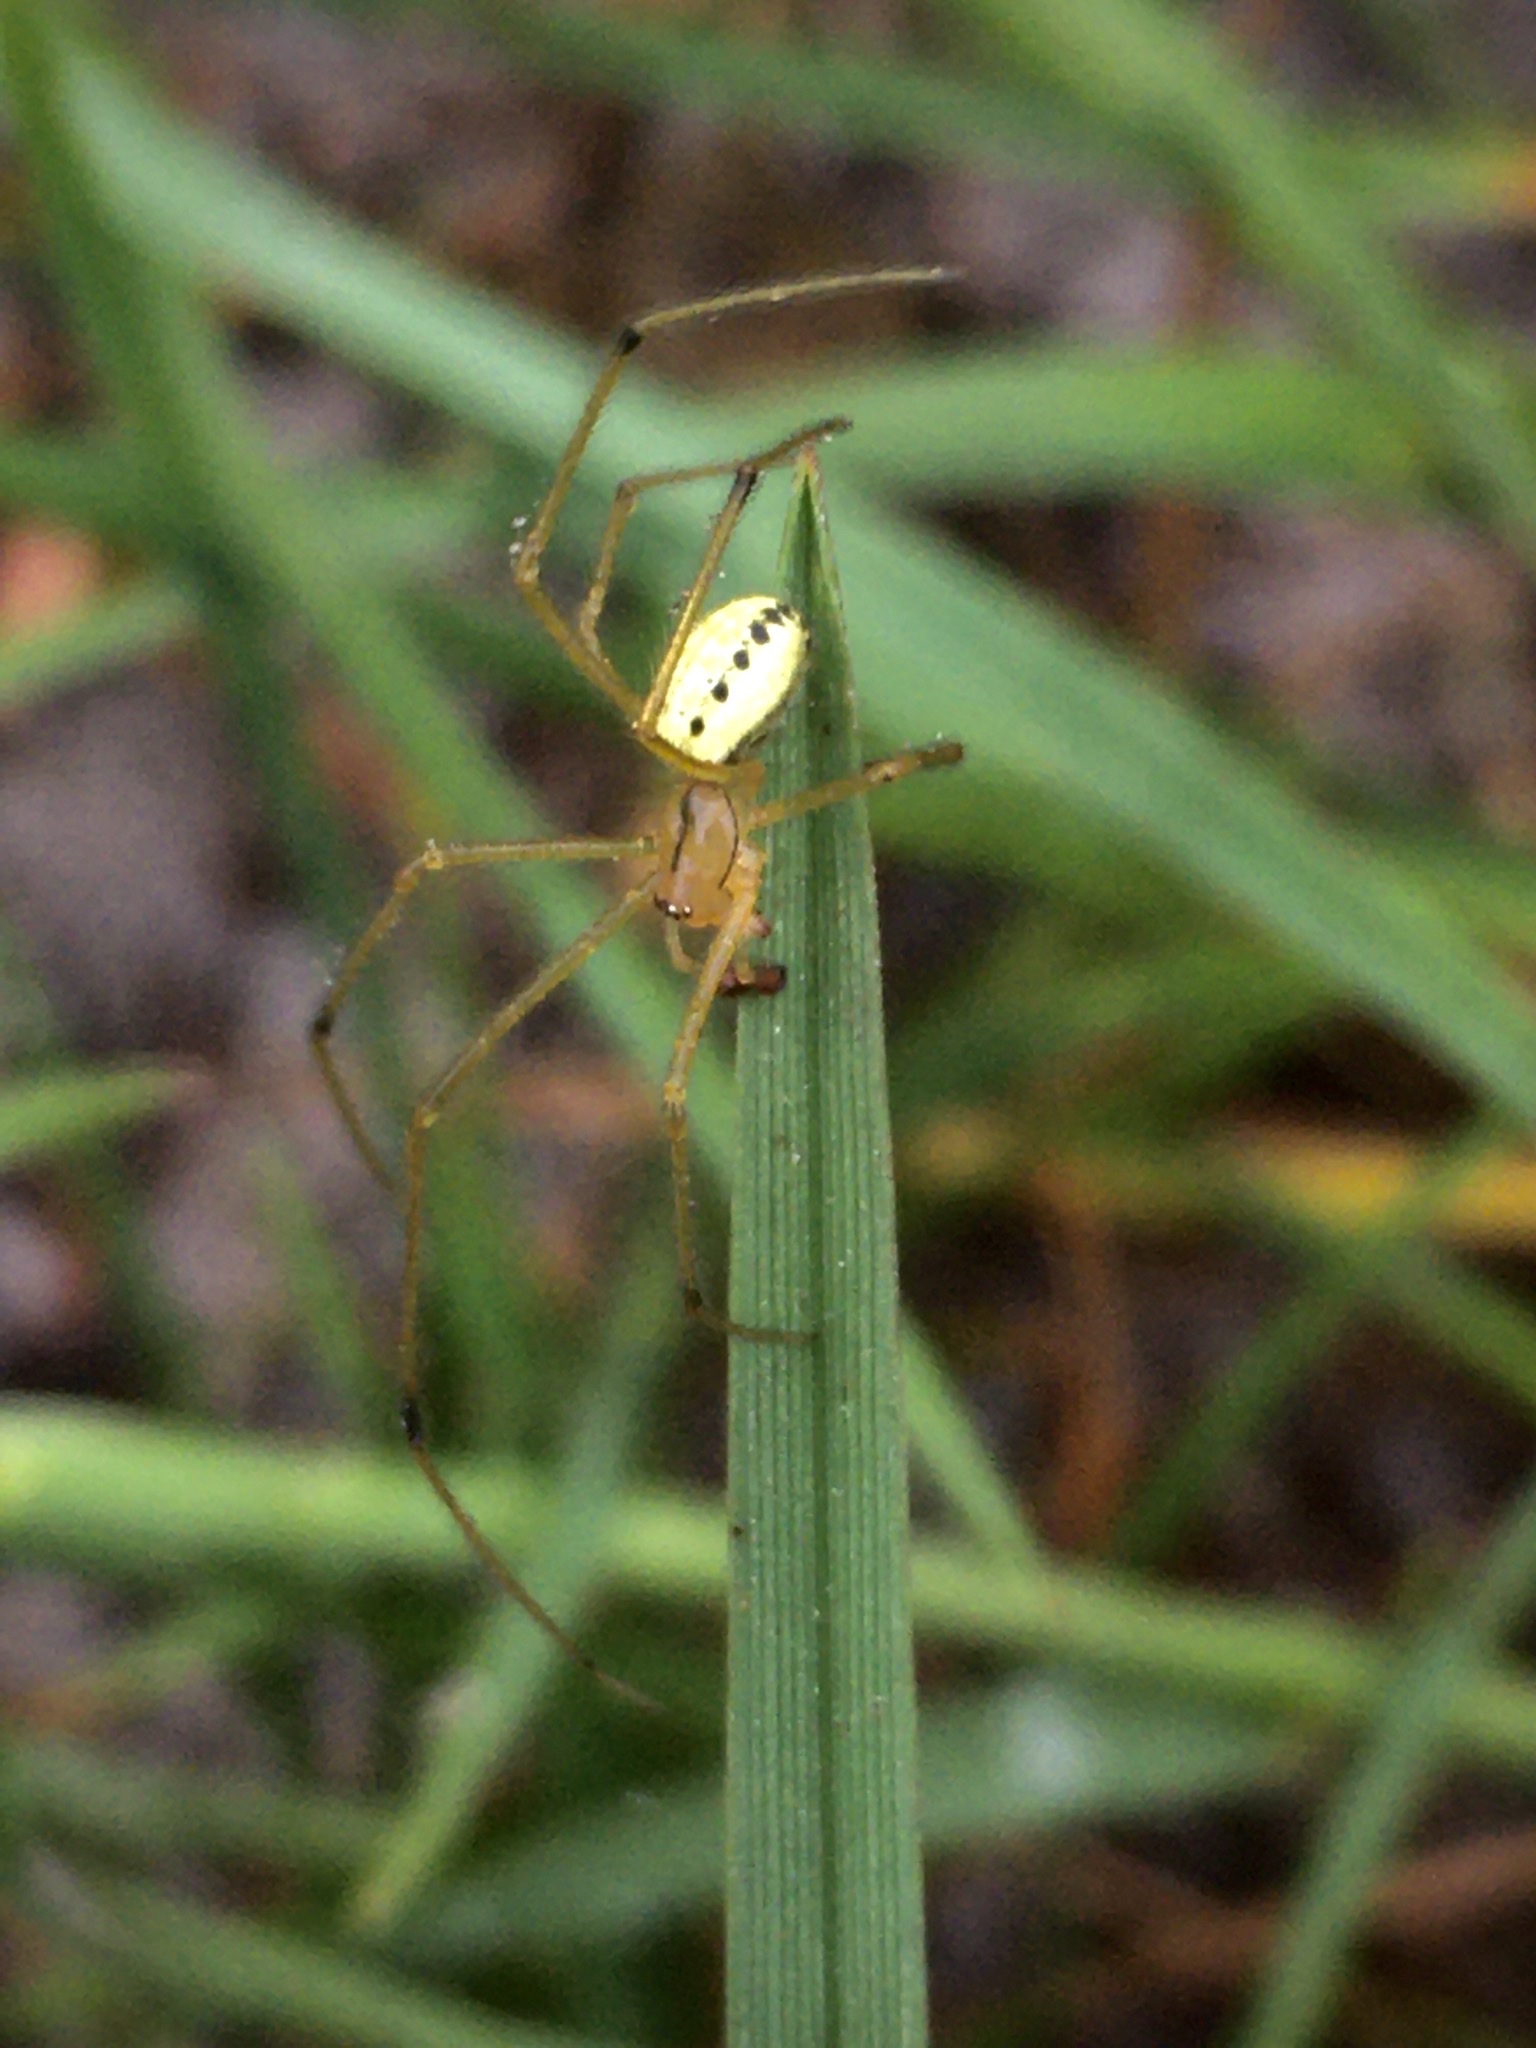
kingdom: Animalia
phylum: Arthropoda
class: Arachnida
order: Araneae
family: Theridiidae
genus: Enoplognatha
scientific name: Enoplognatha ovata
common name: Common candy-striped spider
